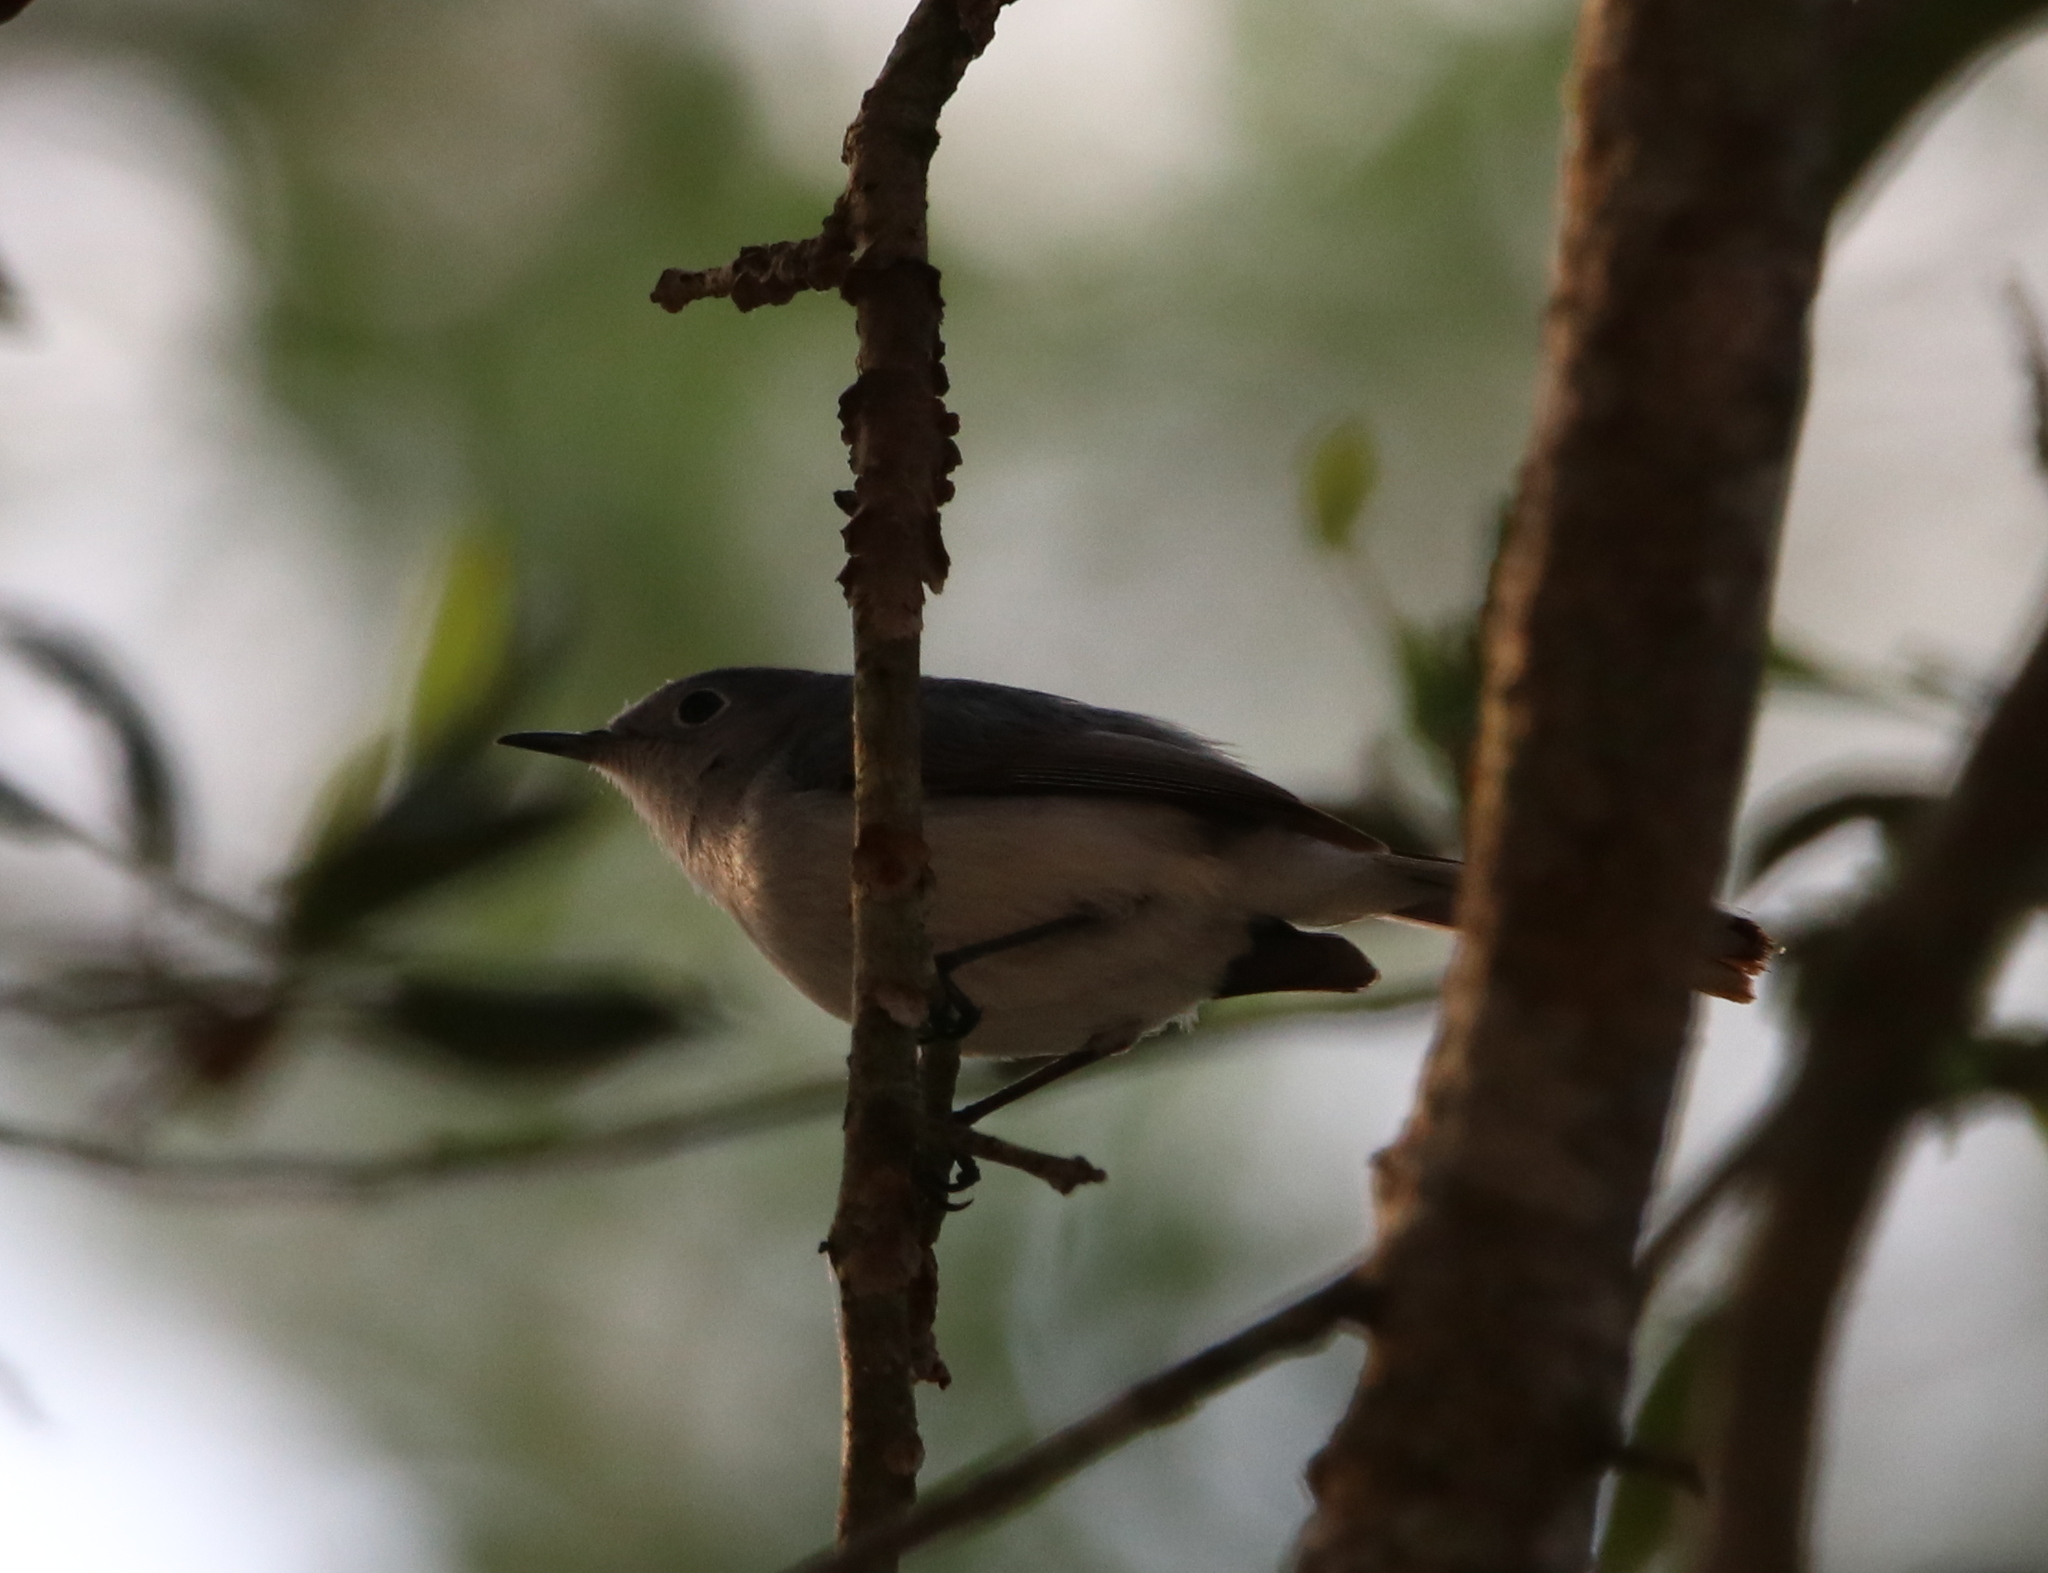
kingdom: Animalia
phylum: Chordata
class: Aves
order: Passeriformes
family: Polioptilidae
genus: Polioptila
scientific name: Polioptila caerulea
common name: Blue-gray gnatcatcher
